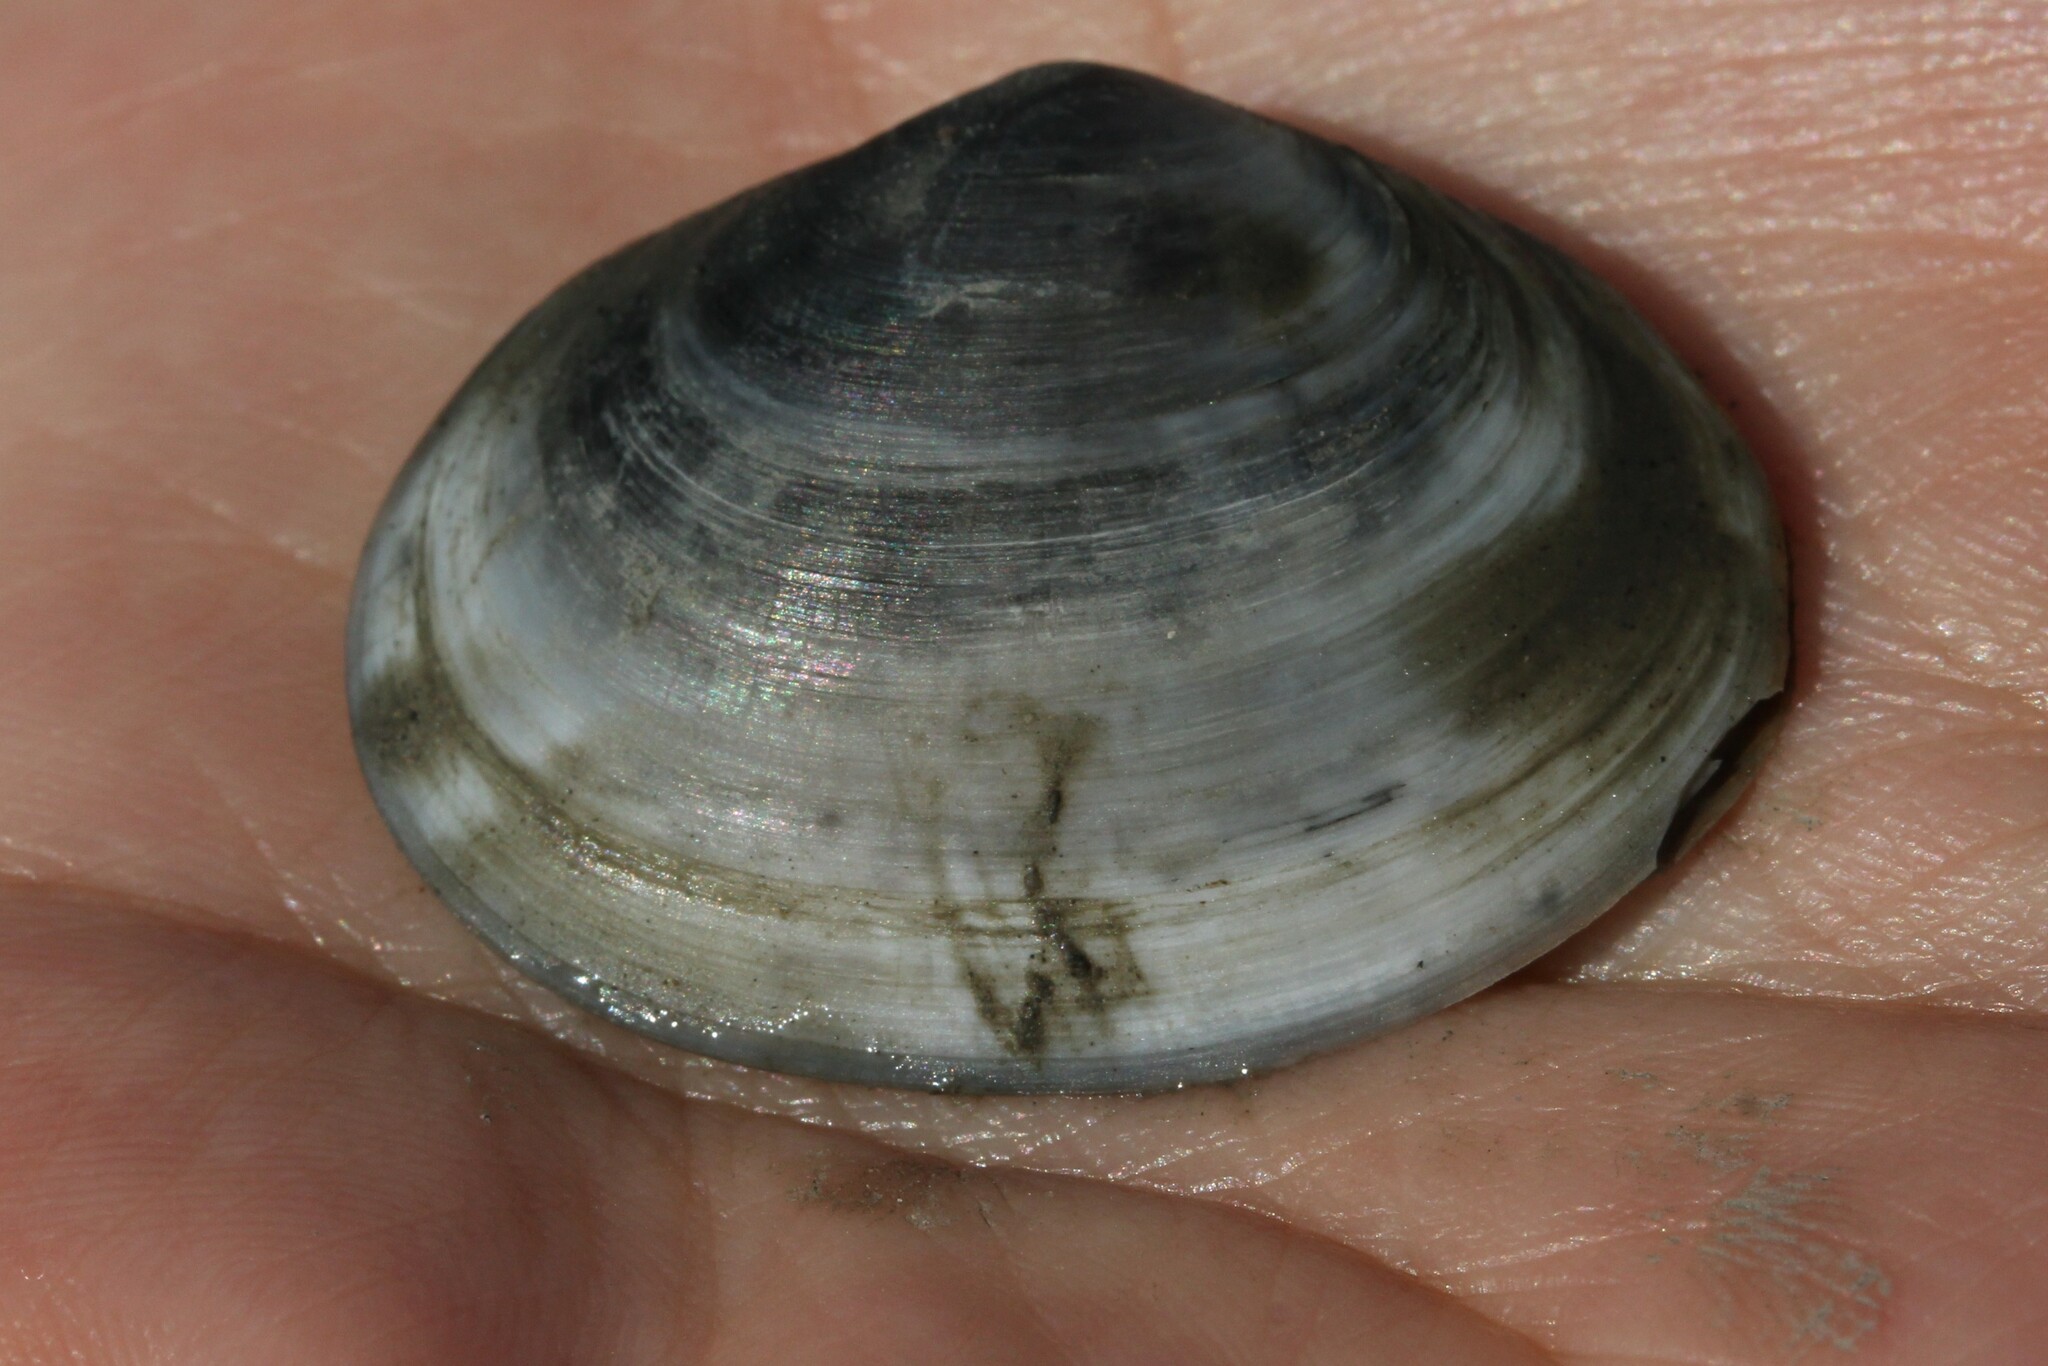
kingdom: Animalia
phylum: Mollusca
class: Bivalvia
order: Cardiida
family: Semelidae
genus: Scrobicularia
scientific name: Scrobicularia plana
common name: Peppery furrow shell
